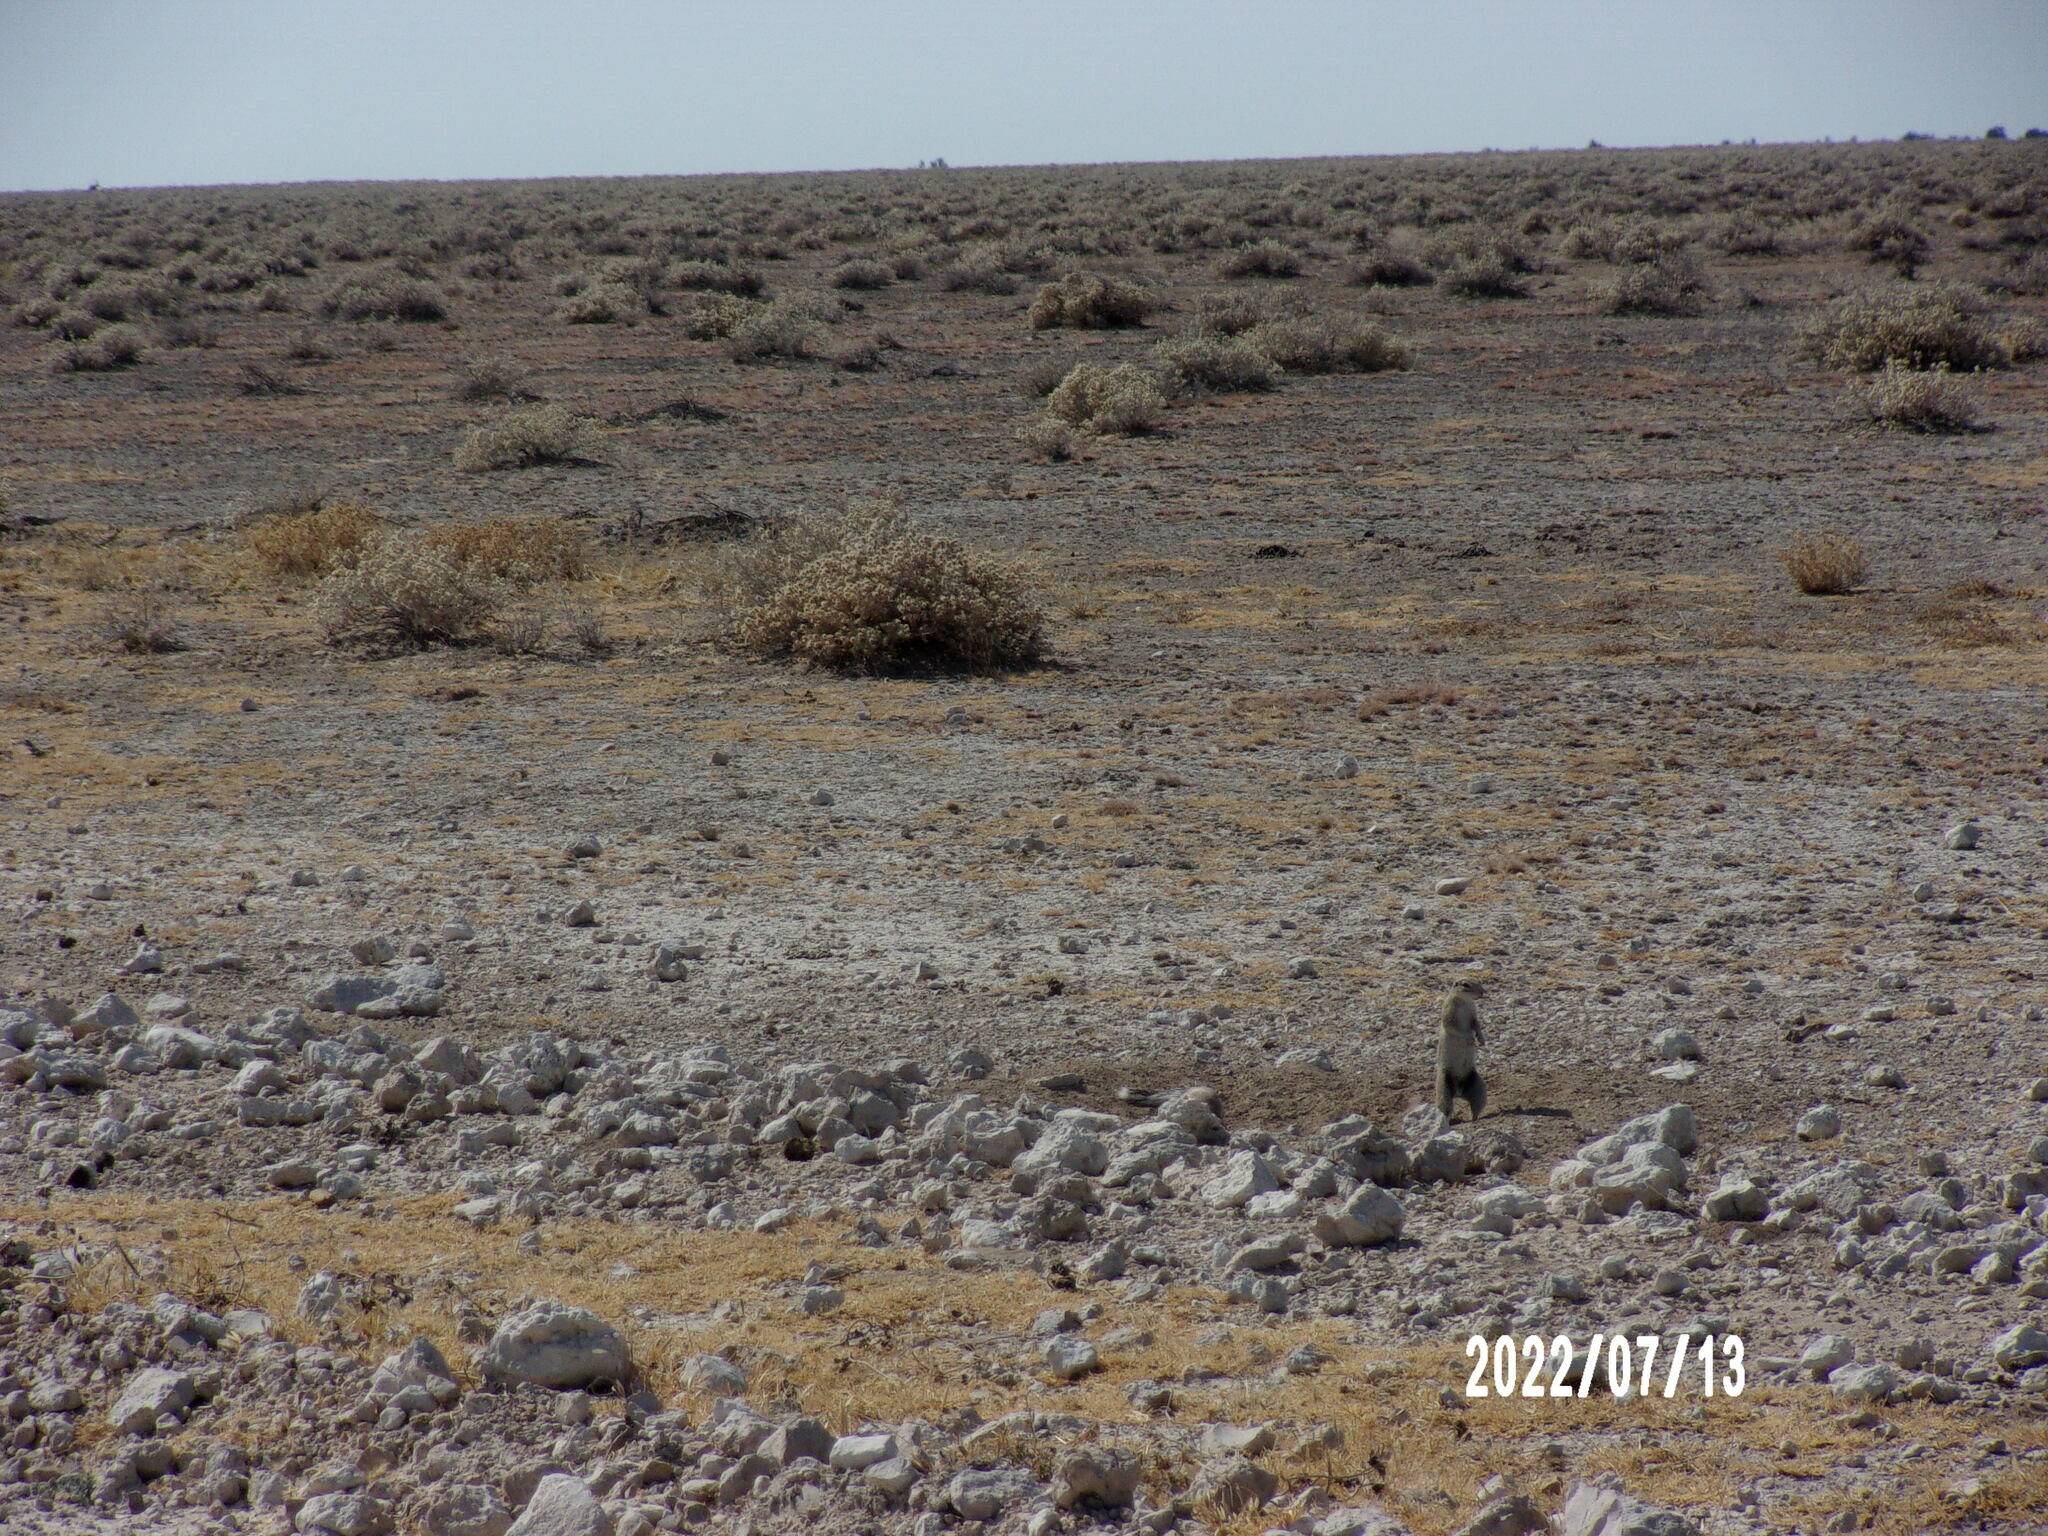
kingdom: Animalia
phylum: Chordata
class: Mammalia
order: Rodentia
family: Sciuridae
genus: Xerus
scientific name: Xerus inauris
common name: South african ground squirrel
